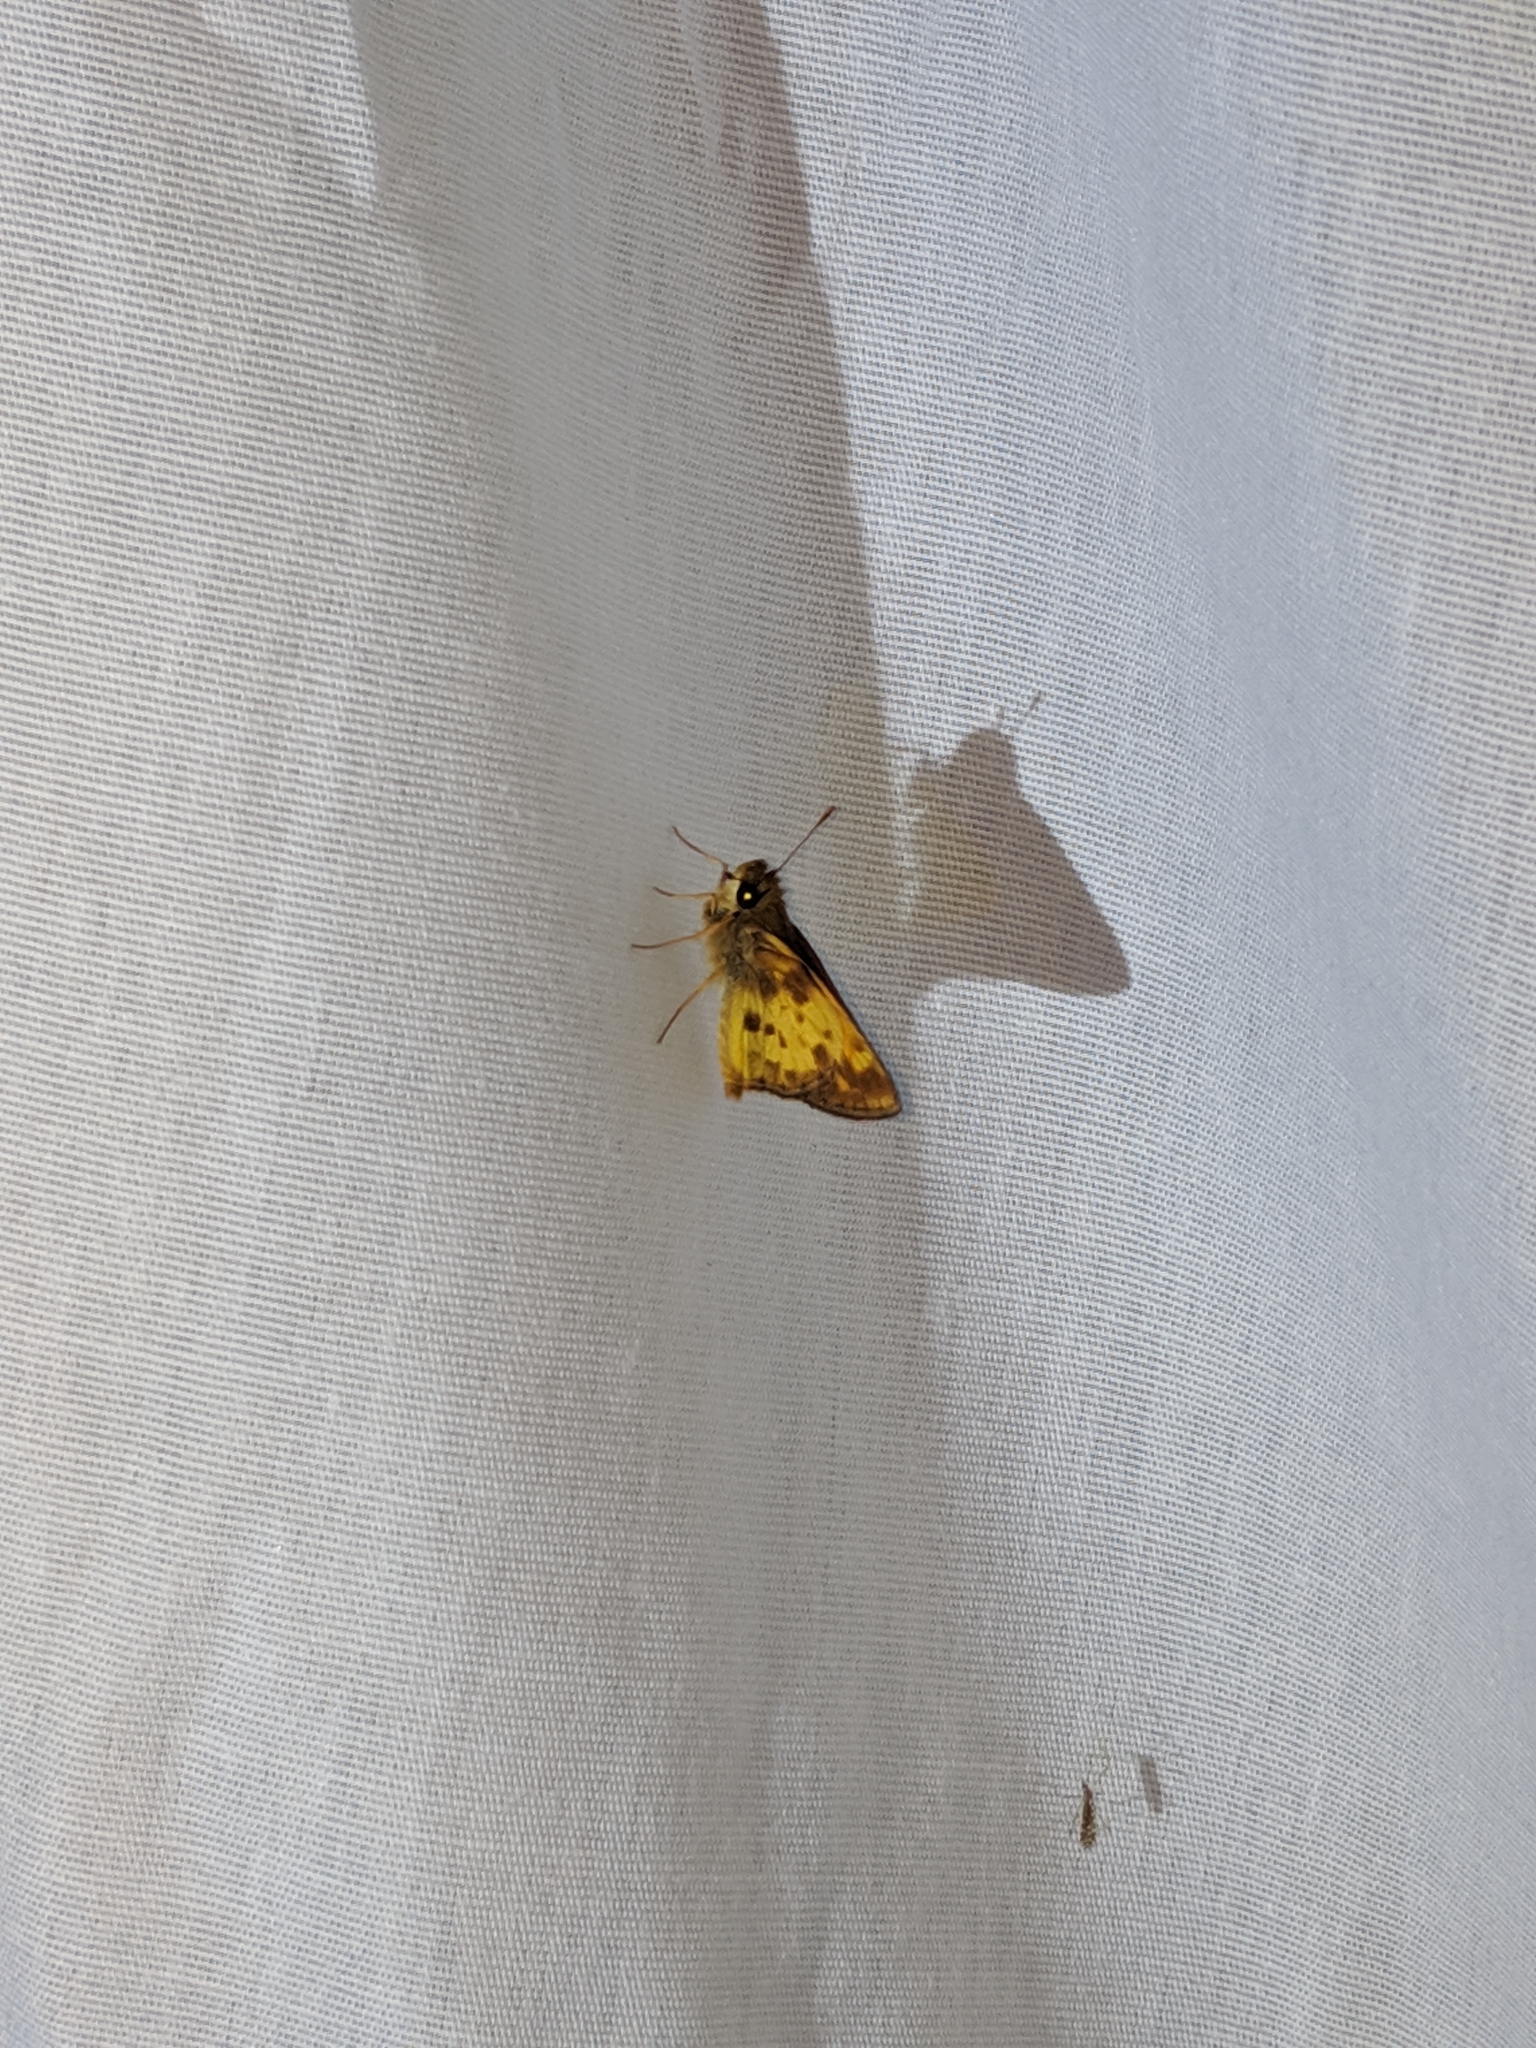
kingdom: Animalia
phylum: Arthropoda
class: Insecta
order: Lepidoptera
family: Hesperiidae
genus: Lon
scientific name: Lon zabulon
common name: Zabulon skipper
